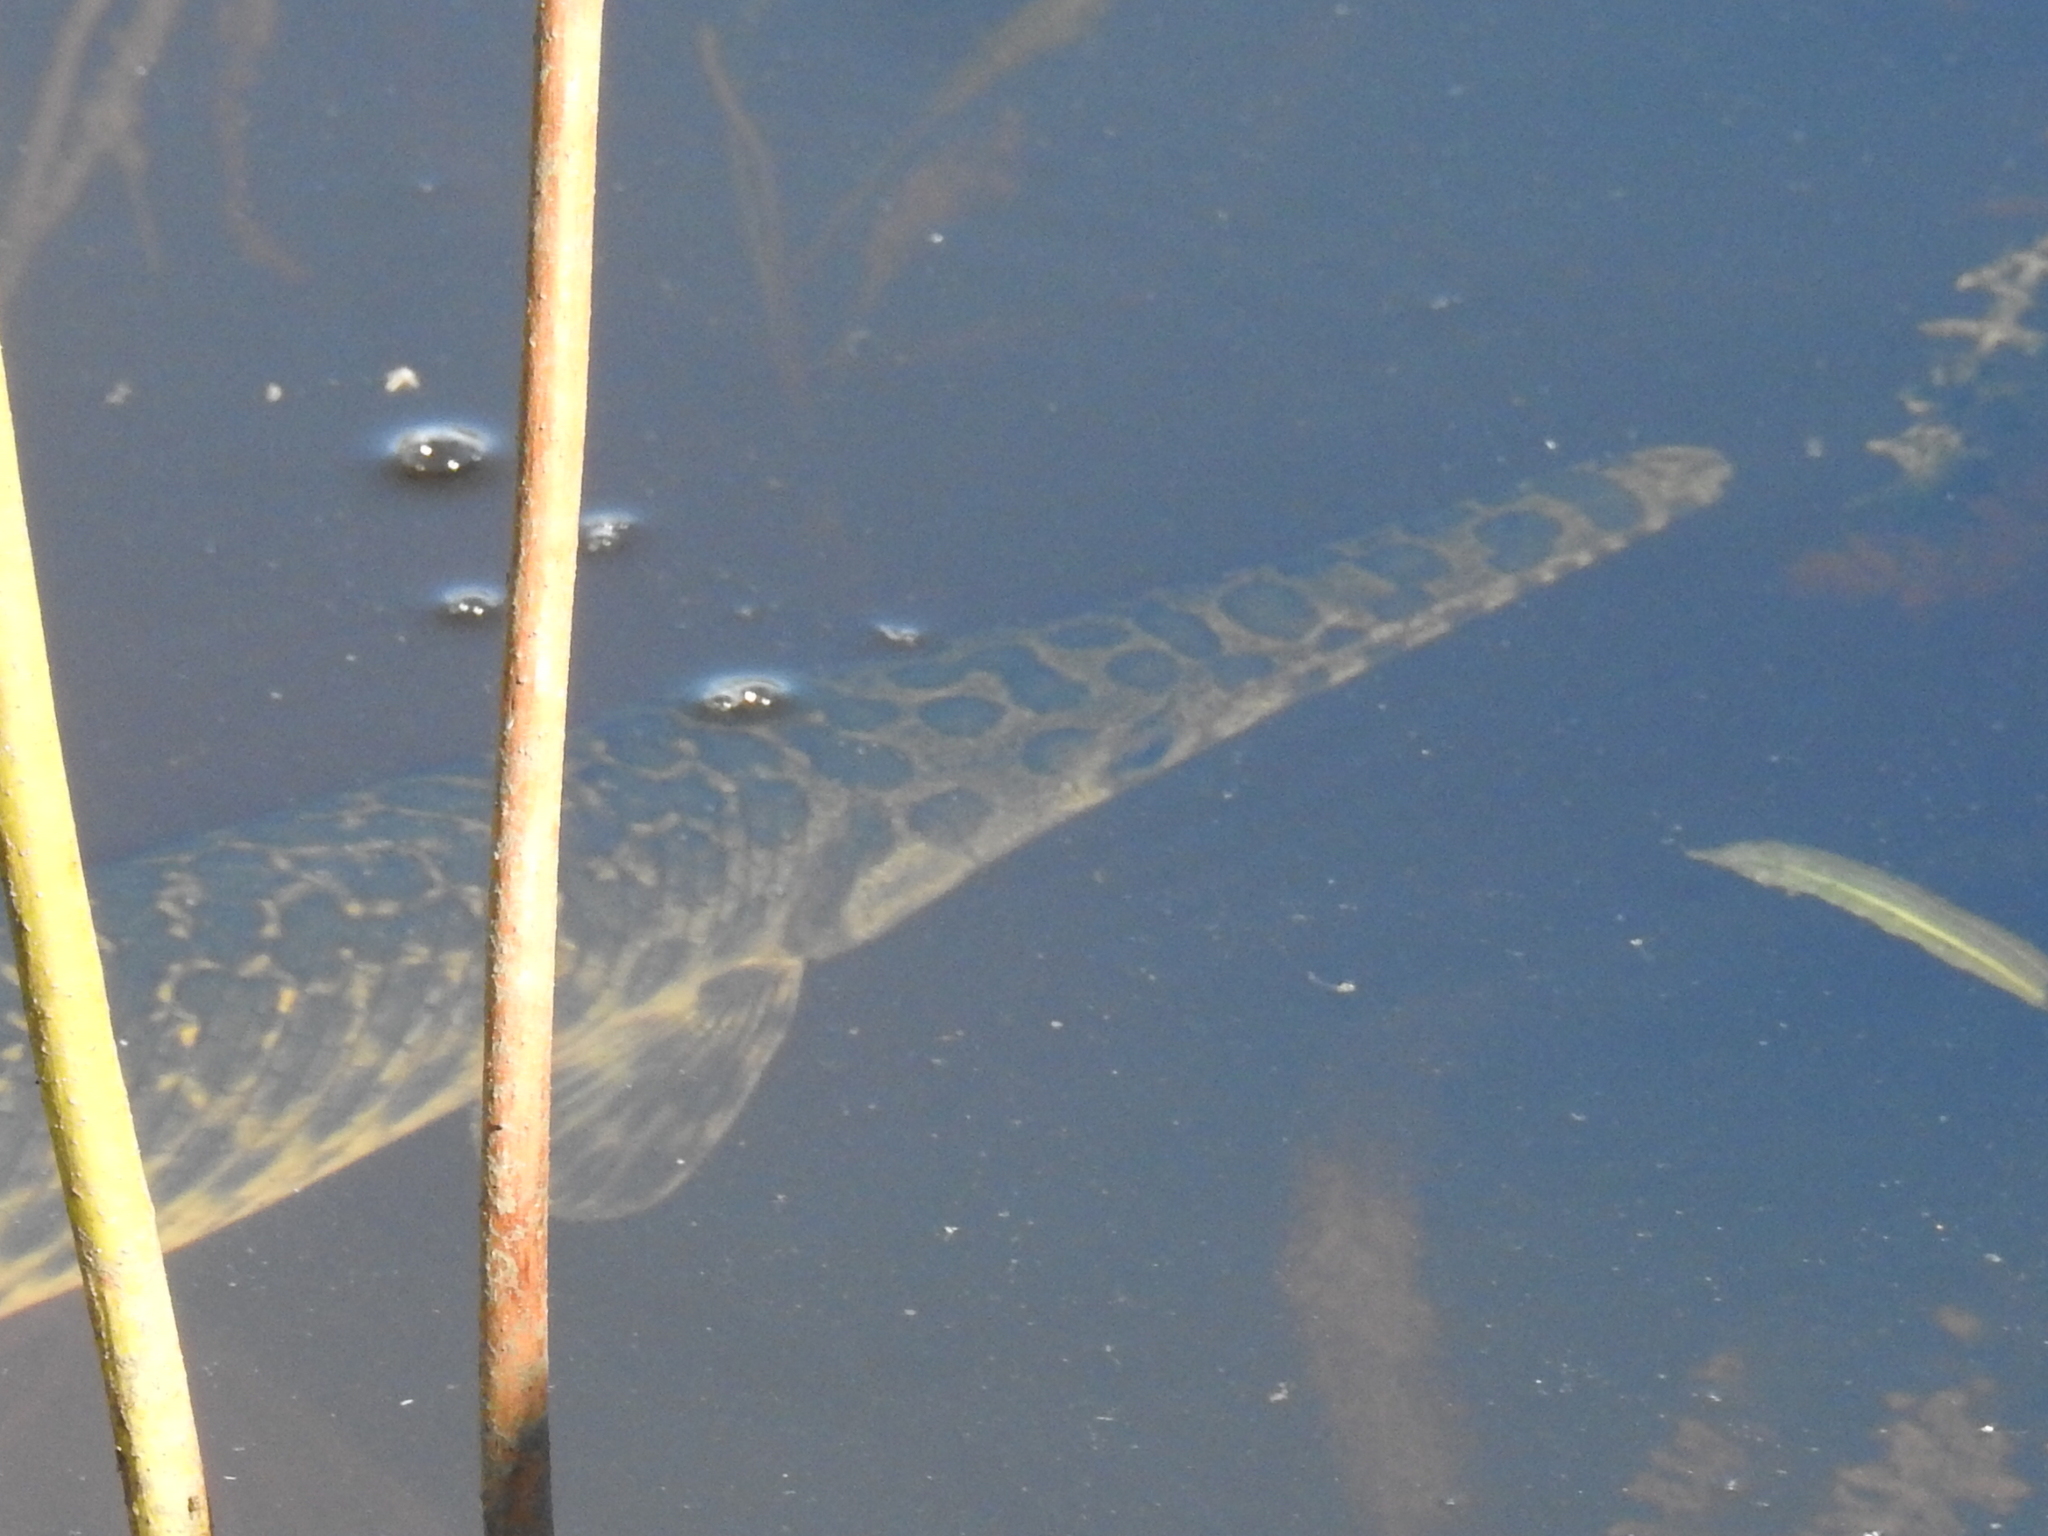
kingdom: Animalia
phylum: Chordata
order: Lepisosteiformes
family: Lepisosteidae
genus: Lepisosteus
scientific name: Lepisosteus oculatus
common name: Spotted gar
